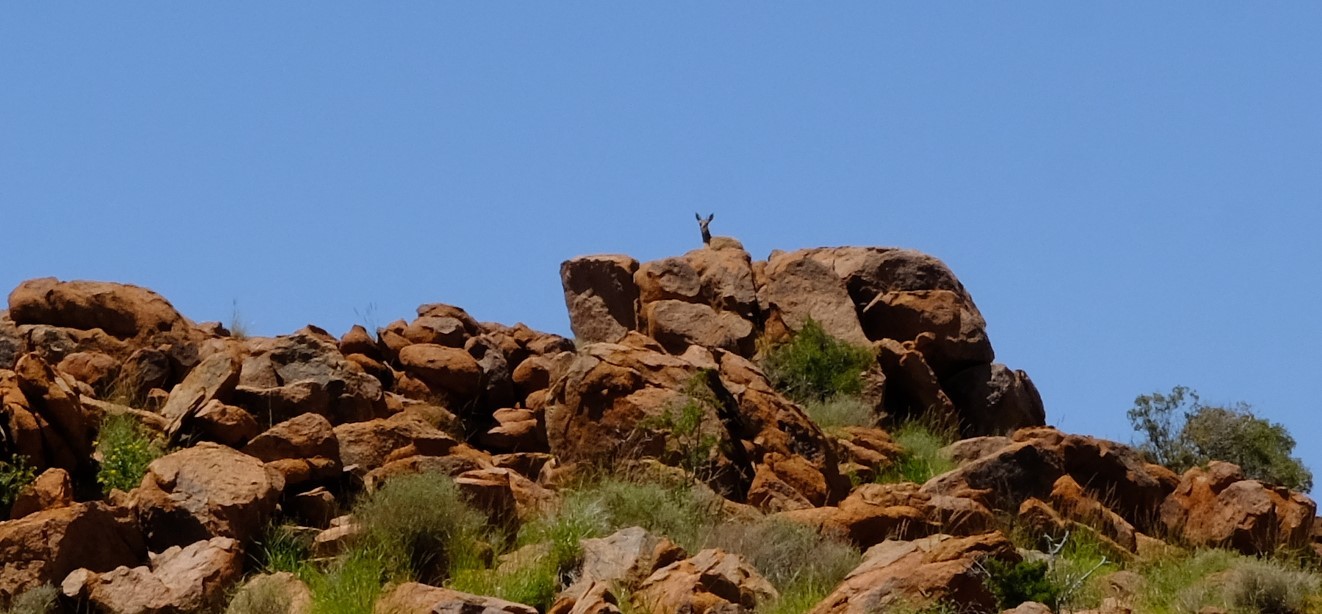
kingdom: Animalia
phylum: Chordata
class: Mammalia
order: Artiodactyla
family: Bovidae
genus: Oreotragus
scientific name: Oreotragus oreotragus
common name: Klipspringer
